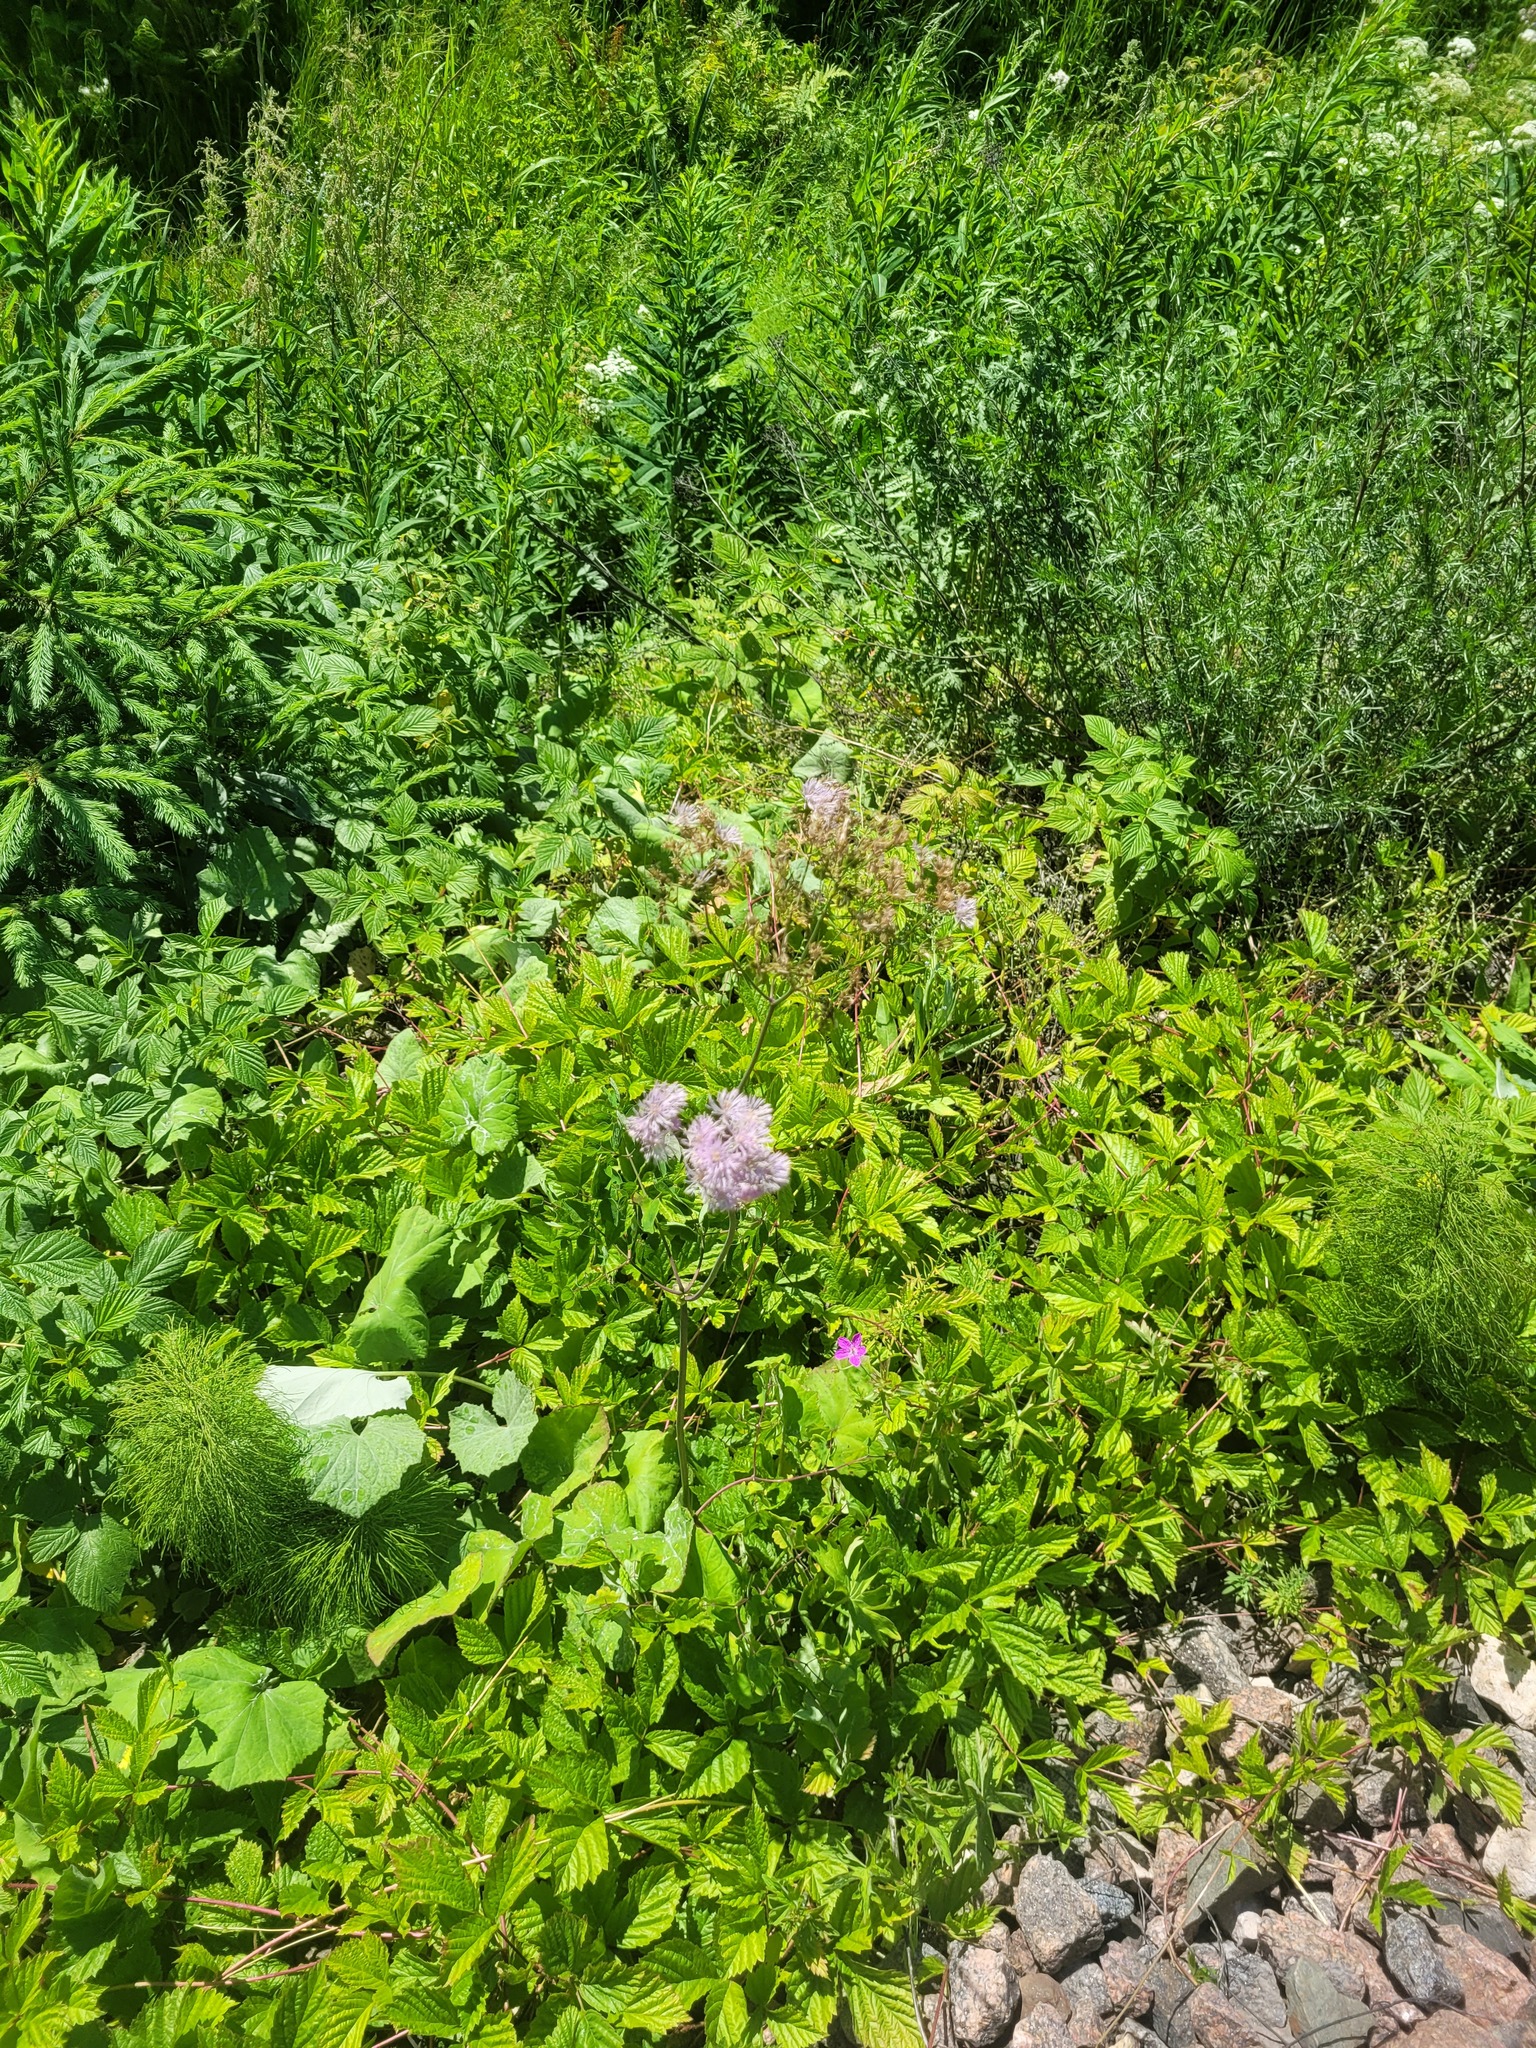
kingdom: Plantae
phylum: Tracheophyta
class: Magnoliopsida
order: Ranunculales
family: Ranunculaceae
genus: Thalictrum
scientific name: Thalictrum aquilegiifolium
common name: French meadow-rue
